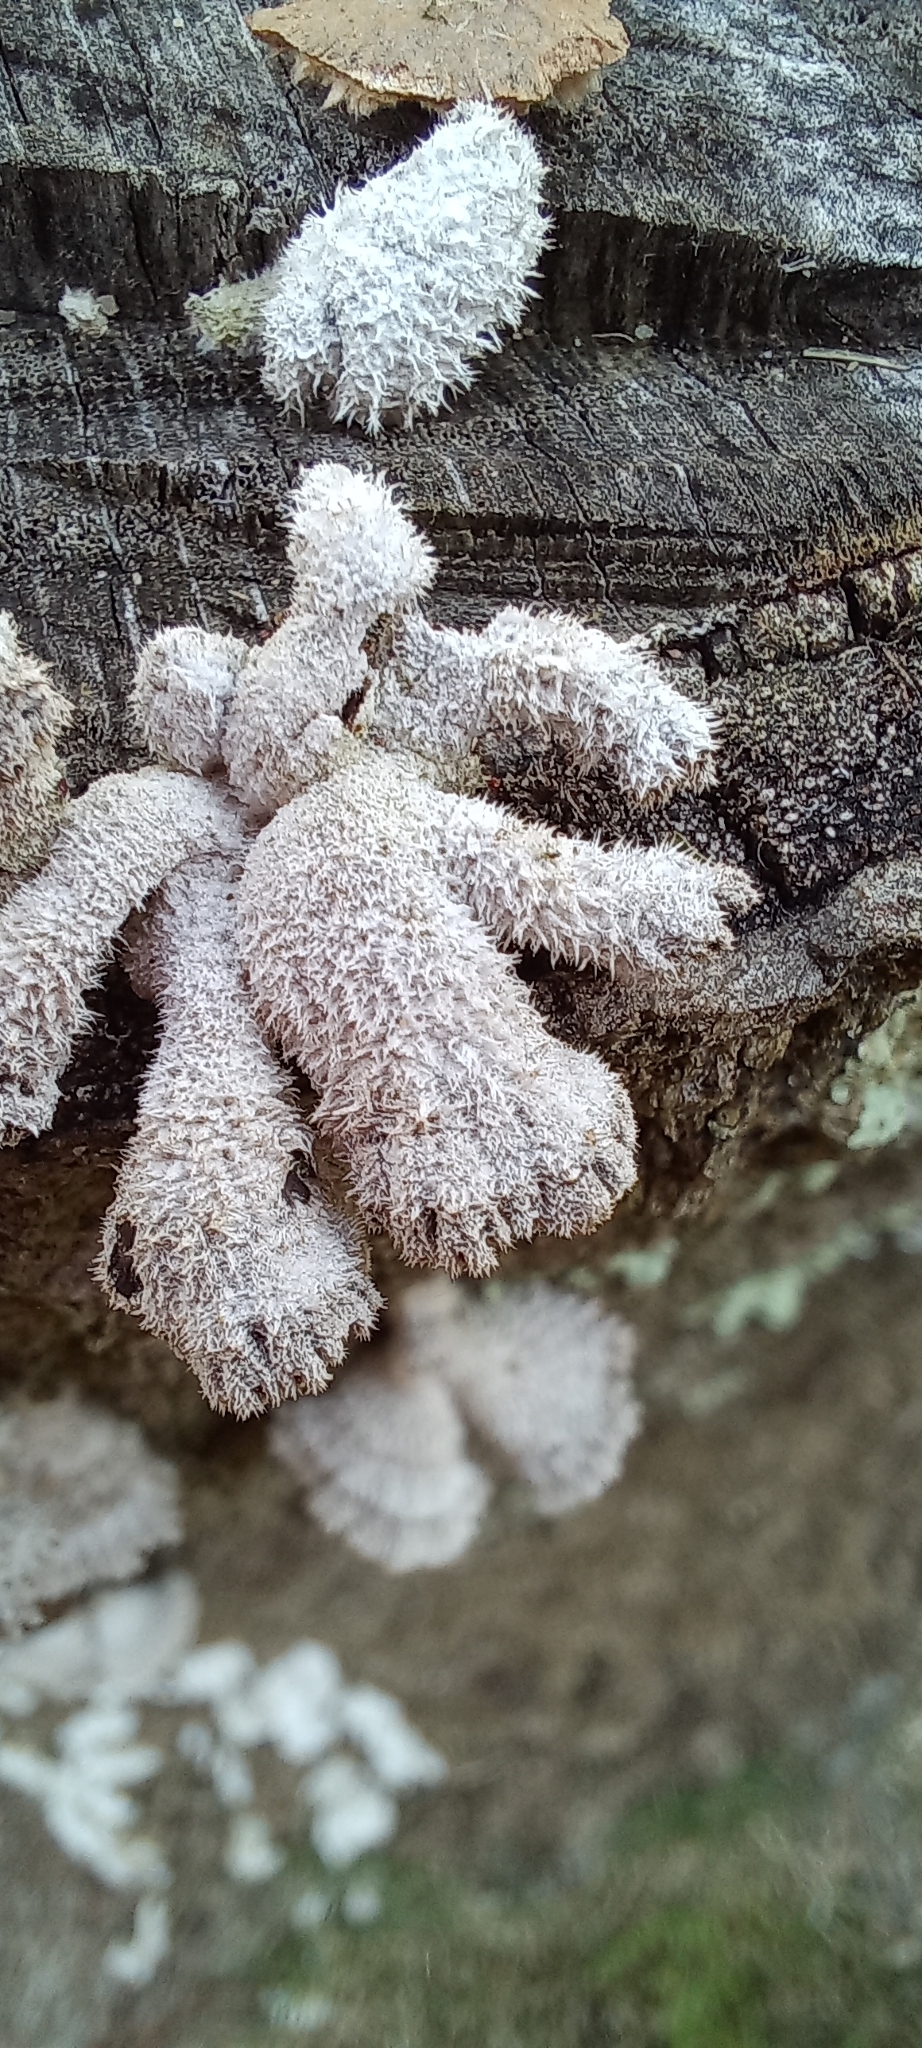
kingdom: Fungi
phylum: Basidiomycota
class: Agaricomycetes
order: Agaricales
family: Schizophyllaceae
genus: Schizophyllum
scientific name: Schizophyllum commune
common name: Common porecrust
